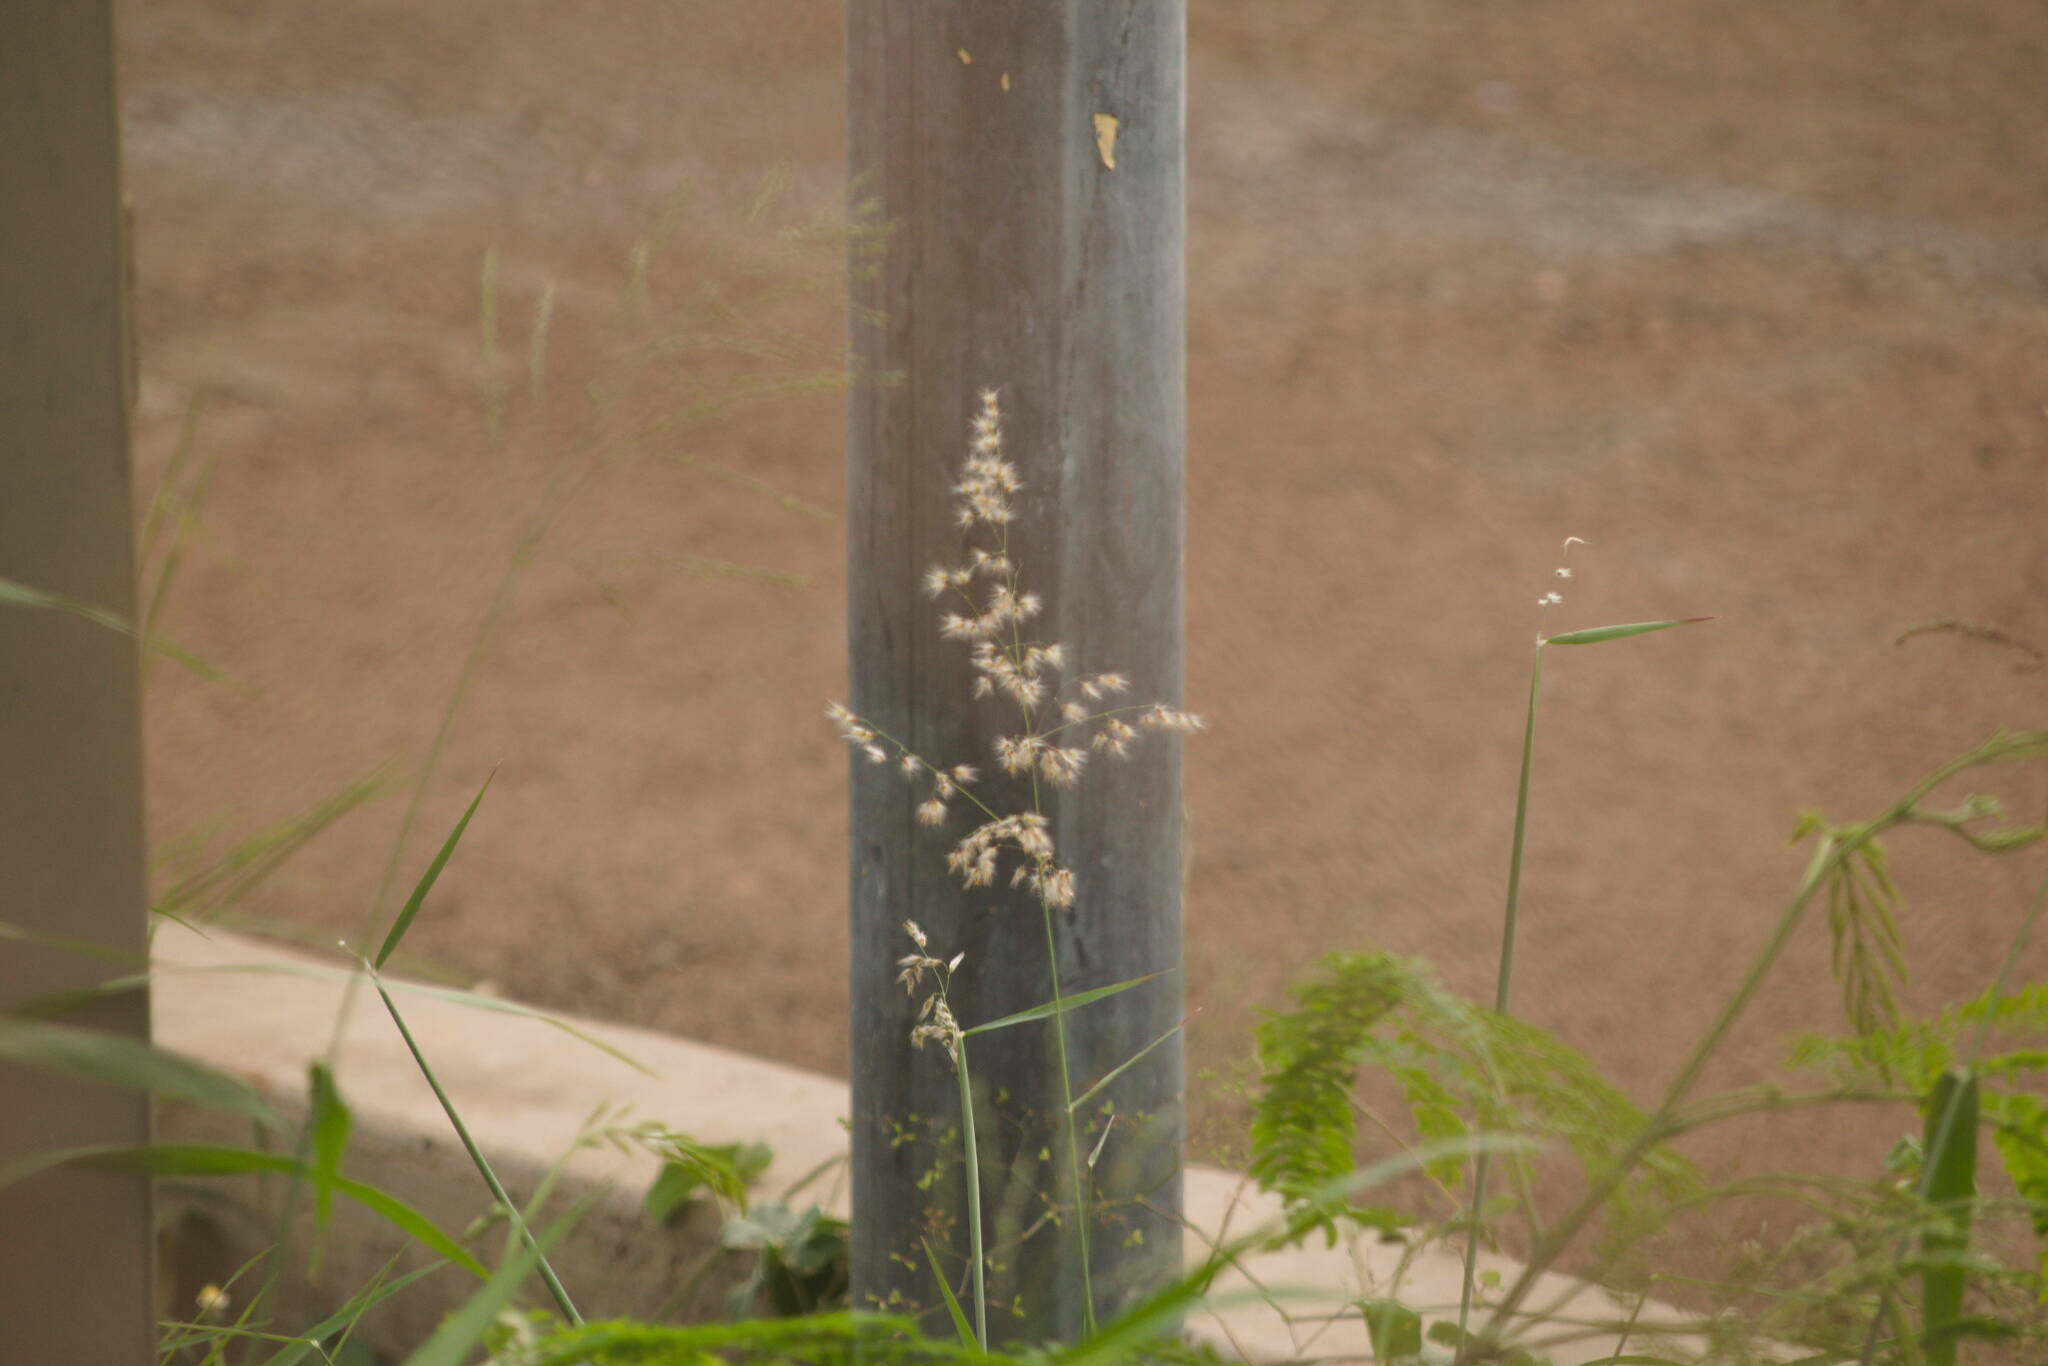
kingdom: Plantae
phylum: Tracheophyta
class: Liliopsida
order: Poales
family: Poaceae
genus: Melinis
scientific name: Melinis repens
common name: Rose natal grass
